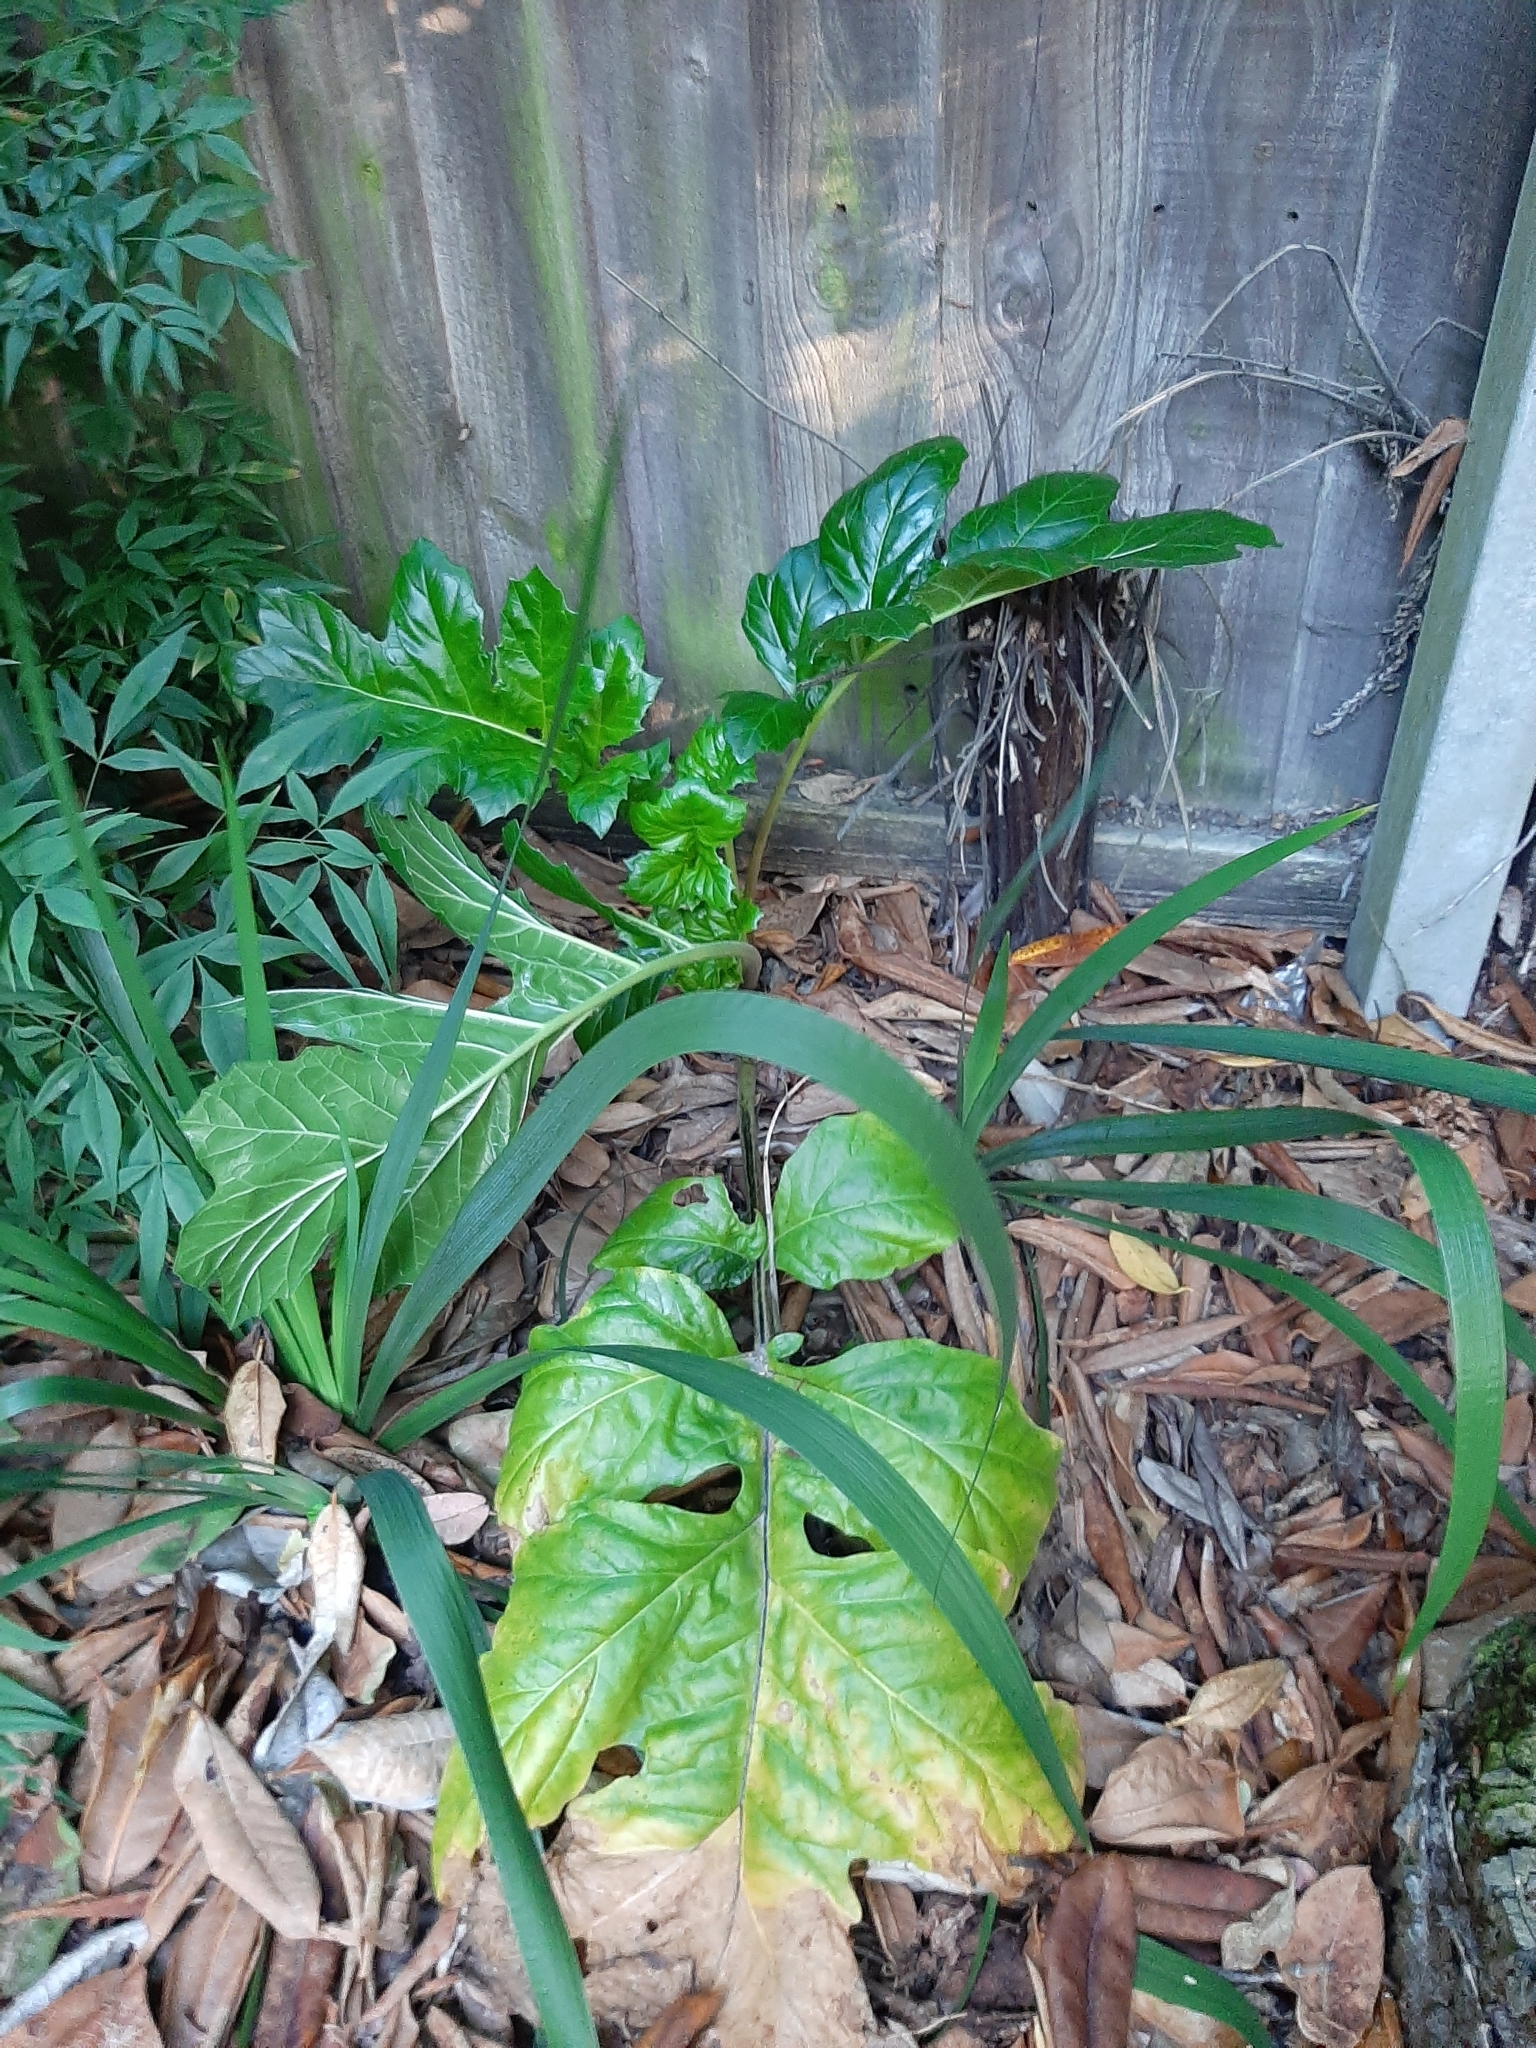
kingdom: Plantae
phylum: Tracheophyta
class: Magnoliopsida
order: Lamiales
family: Acanthaceae
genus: Acanthus
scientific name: Acanthus mollis
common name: Bear's-breech
